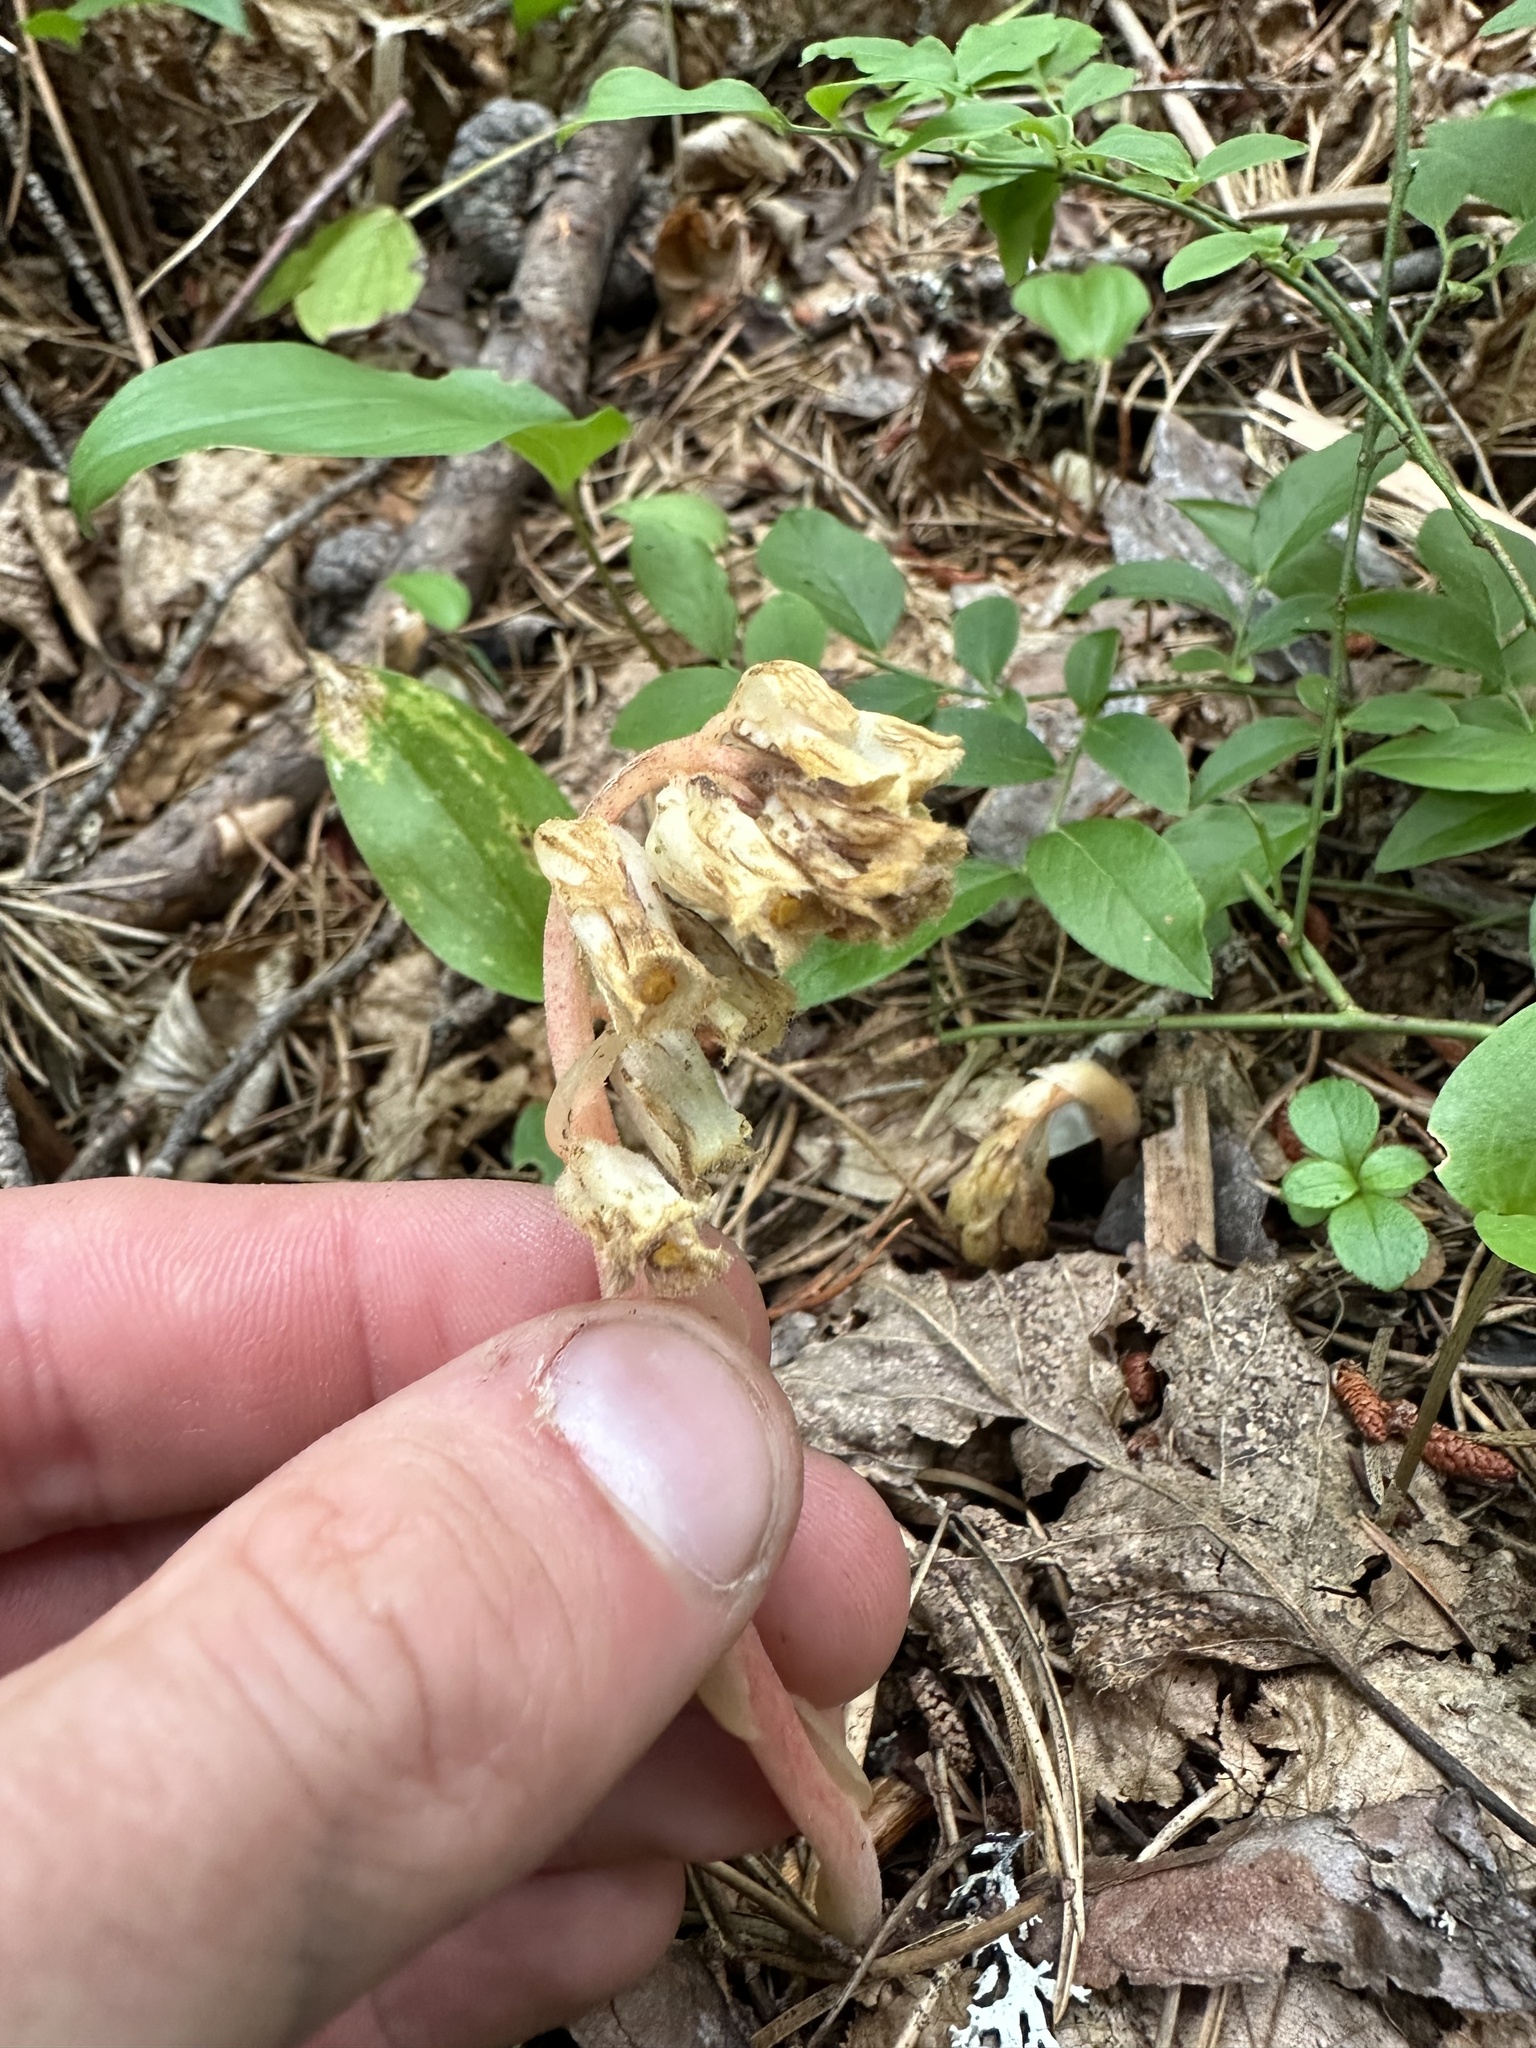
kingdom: Plantae
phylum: Tracheophyta
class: Magnoliopsida
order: Ericales
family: Ericaceae
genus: Hypopitys
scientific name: Hypopitys monotropa
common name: Yellow bird's-nest
